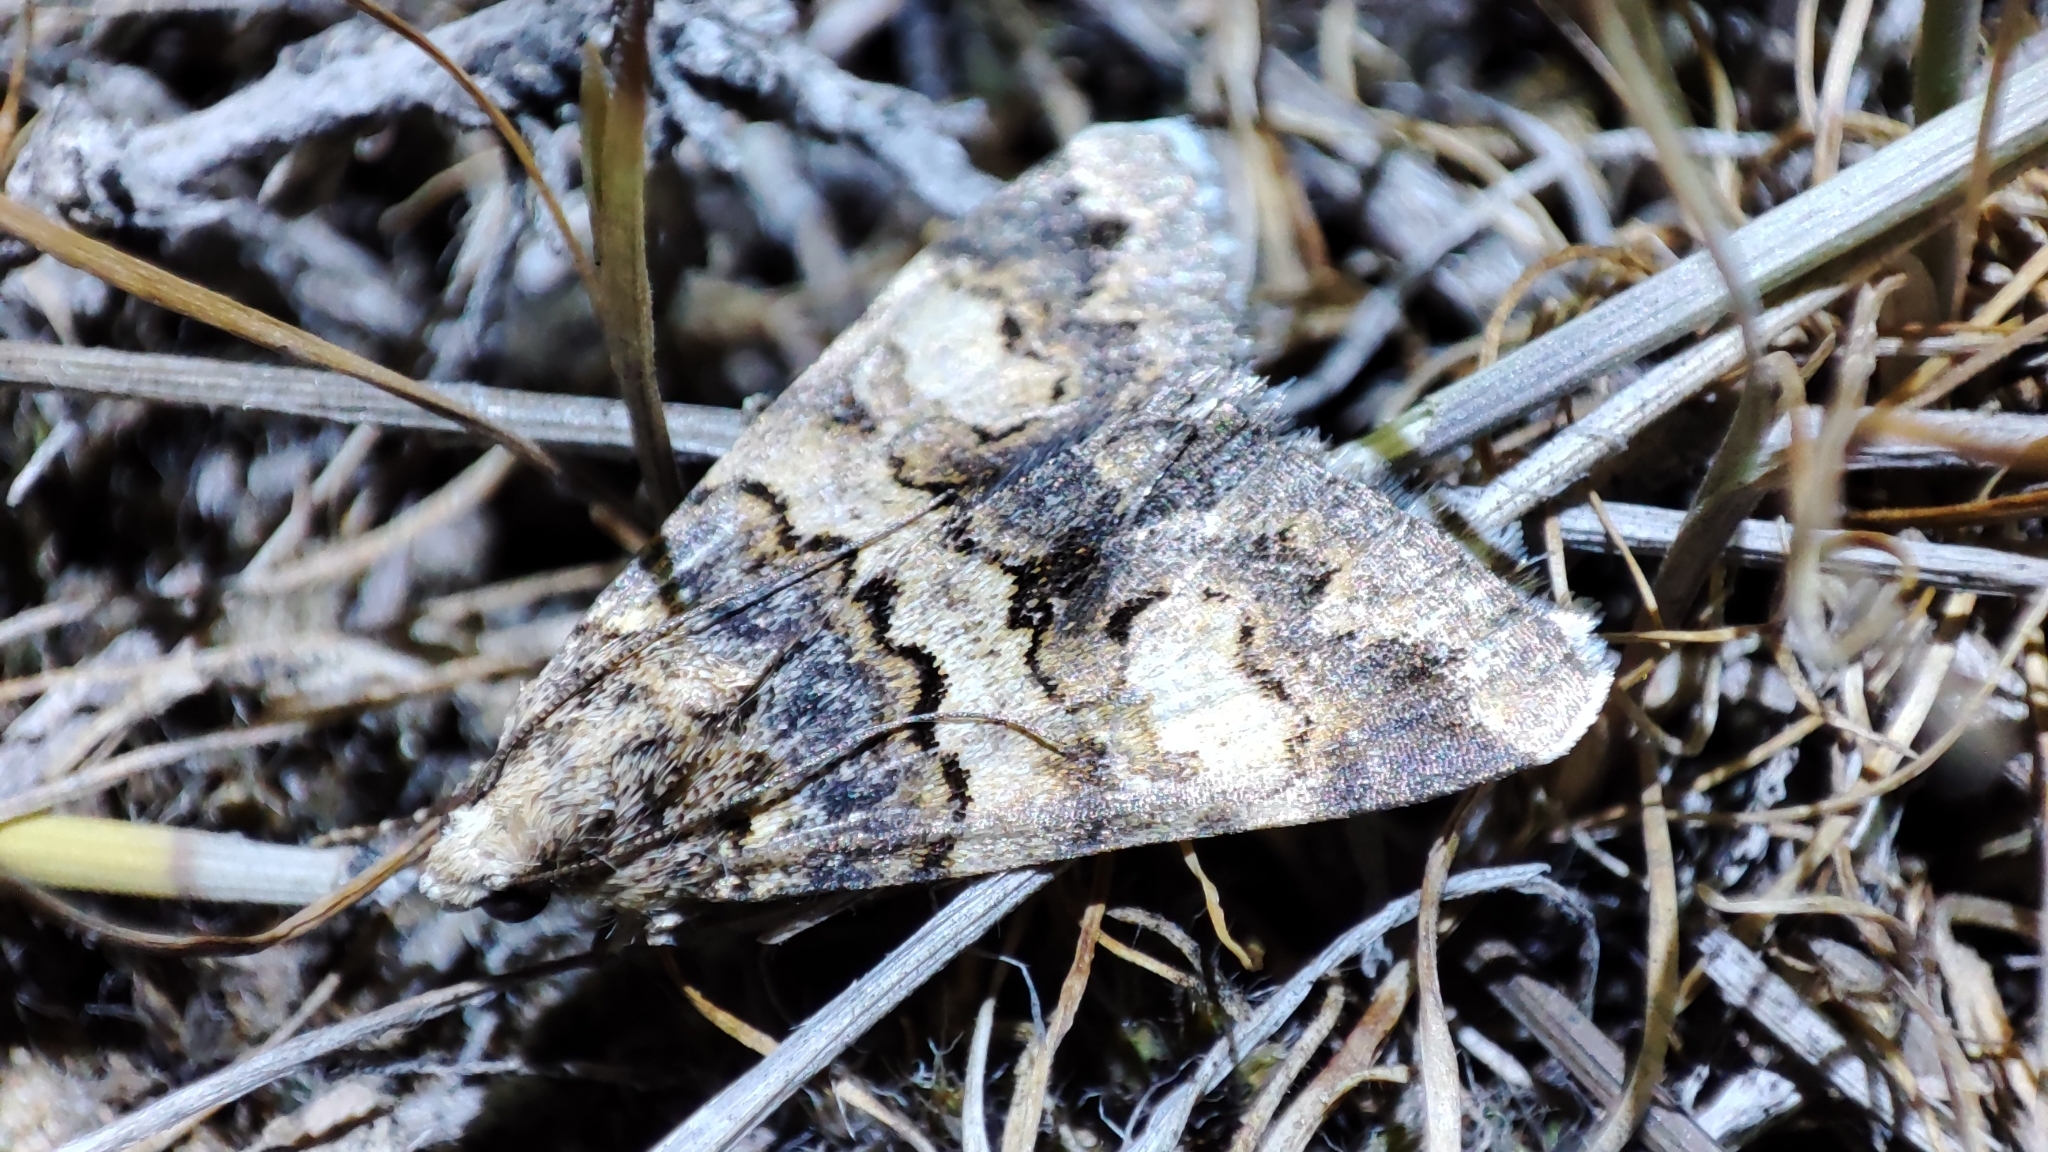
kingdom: Animalia
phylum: Arthropoda
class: Insecta
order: Lepidoptera
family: Erebidae
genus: Drasteria
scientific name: Drasteria saisani
